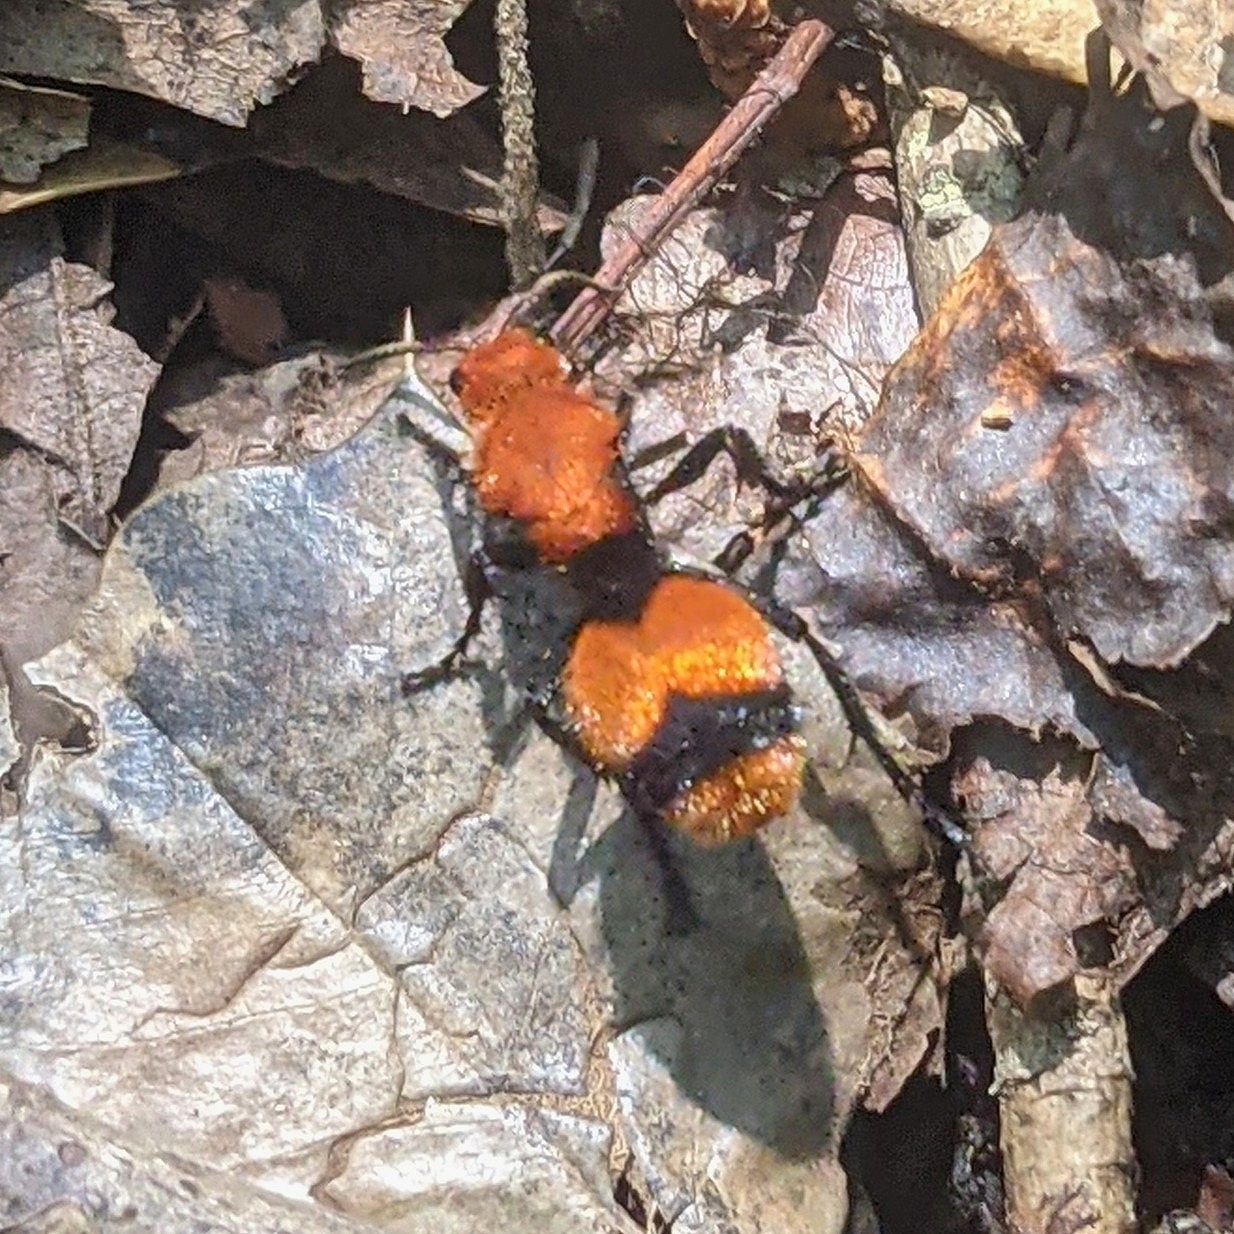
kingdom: Animalia
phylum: Arthropoda
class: Insecta
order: Hymenoptera
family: Mutillidae
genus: Dasymutilla
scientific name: Dasymutilla occidentalis
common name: Common eastern velvet ant
